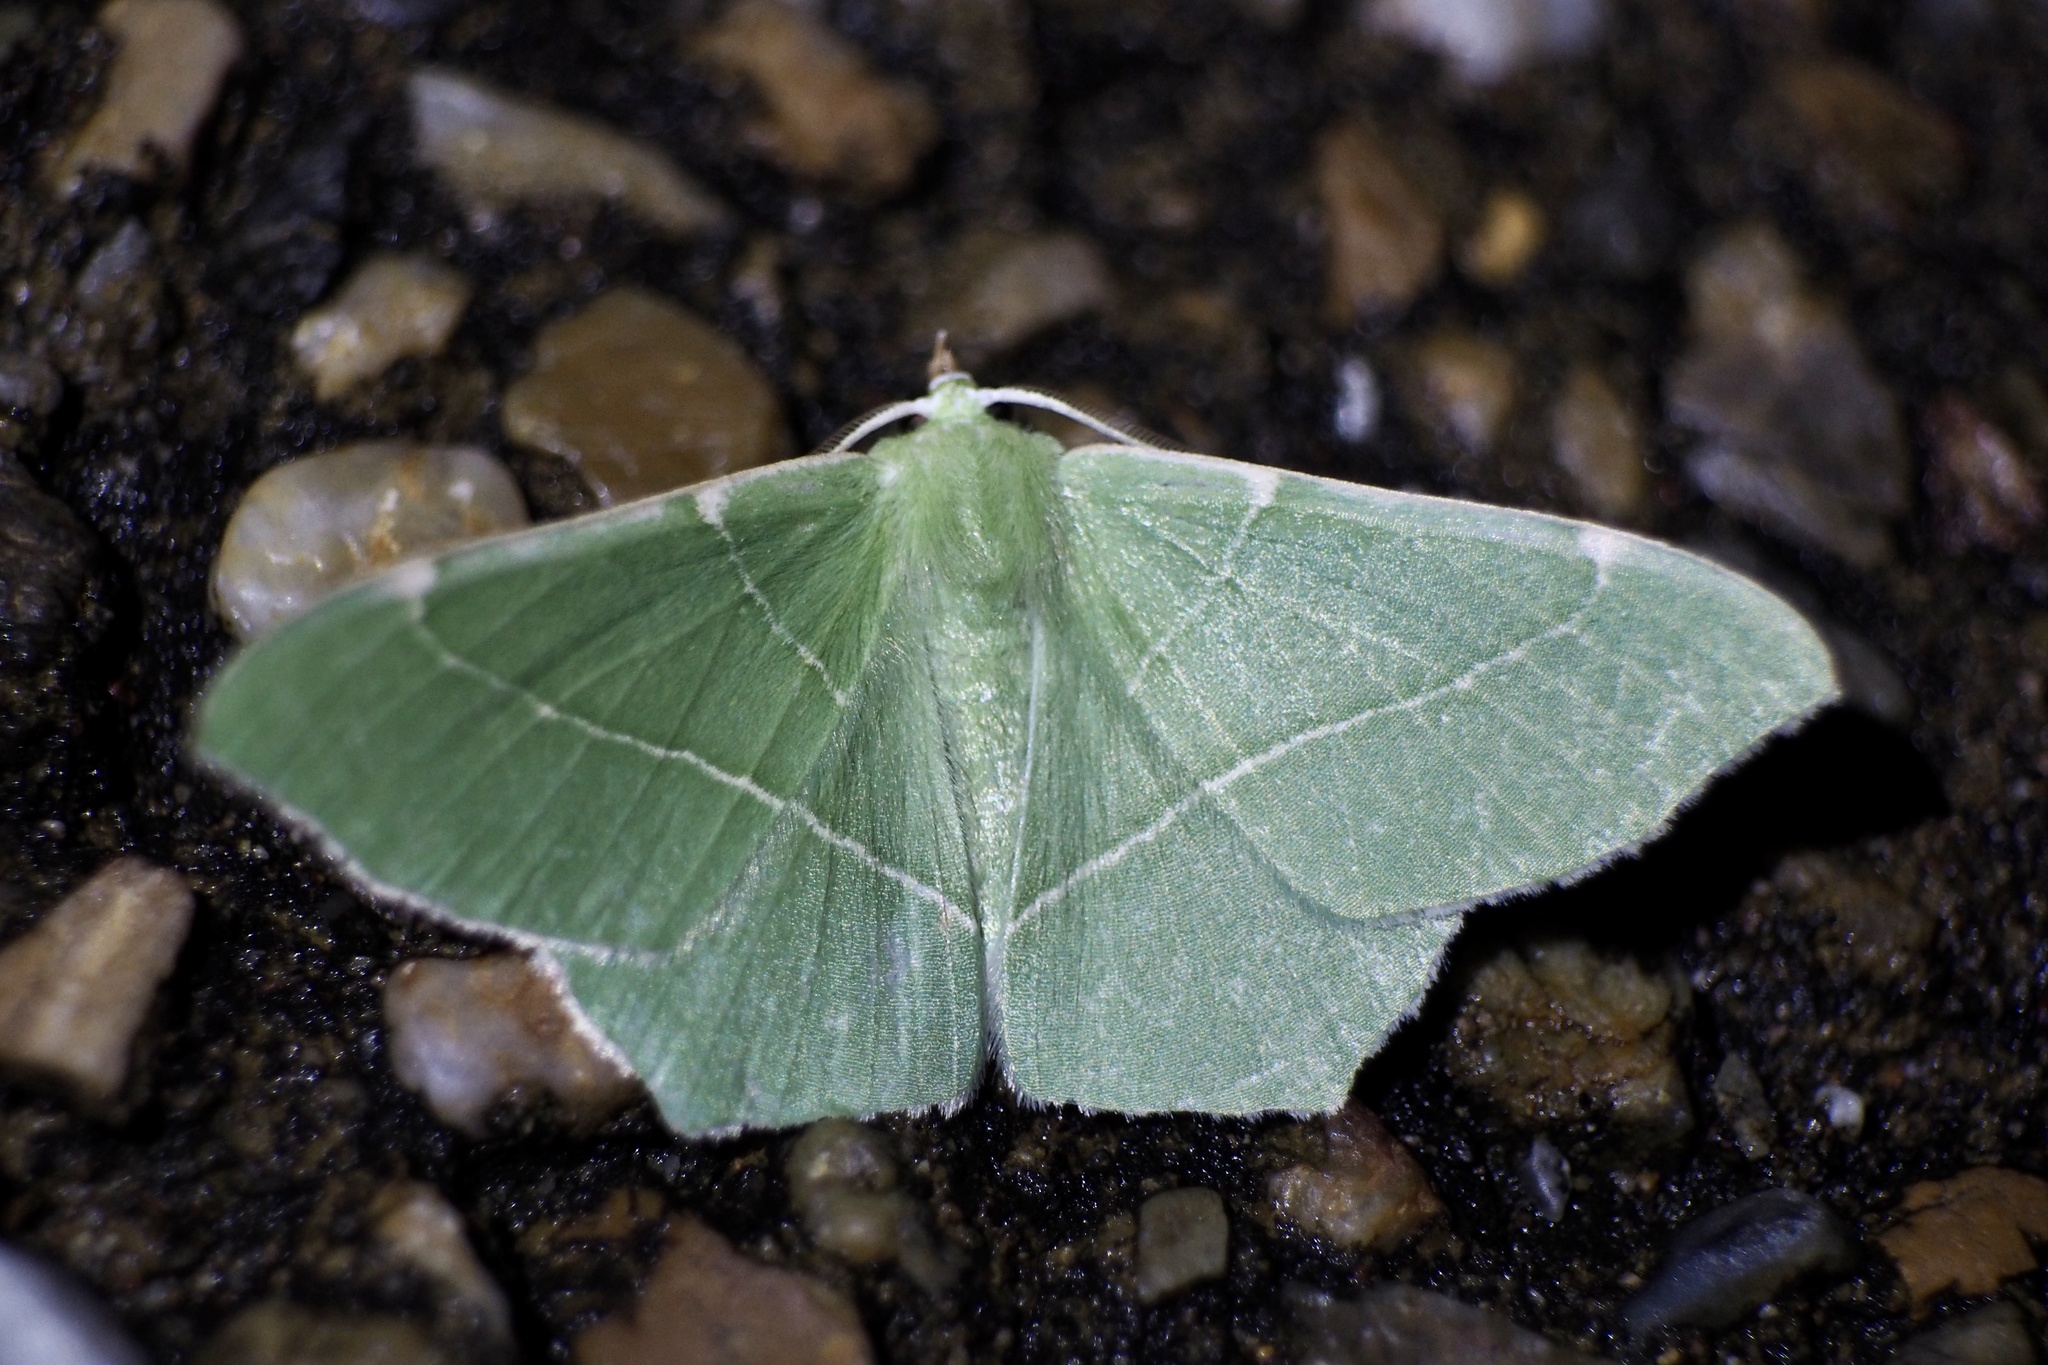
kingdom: Animalia
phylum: Arthropoda
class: Insecta
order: Lepidoptera
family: Geometridae
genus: Geometra
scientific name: Geometra dieckmanni
